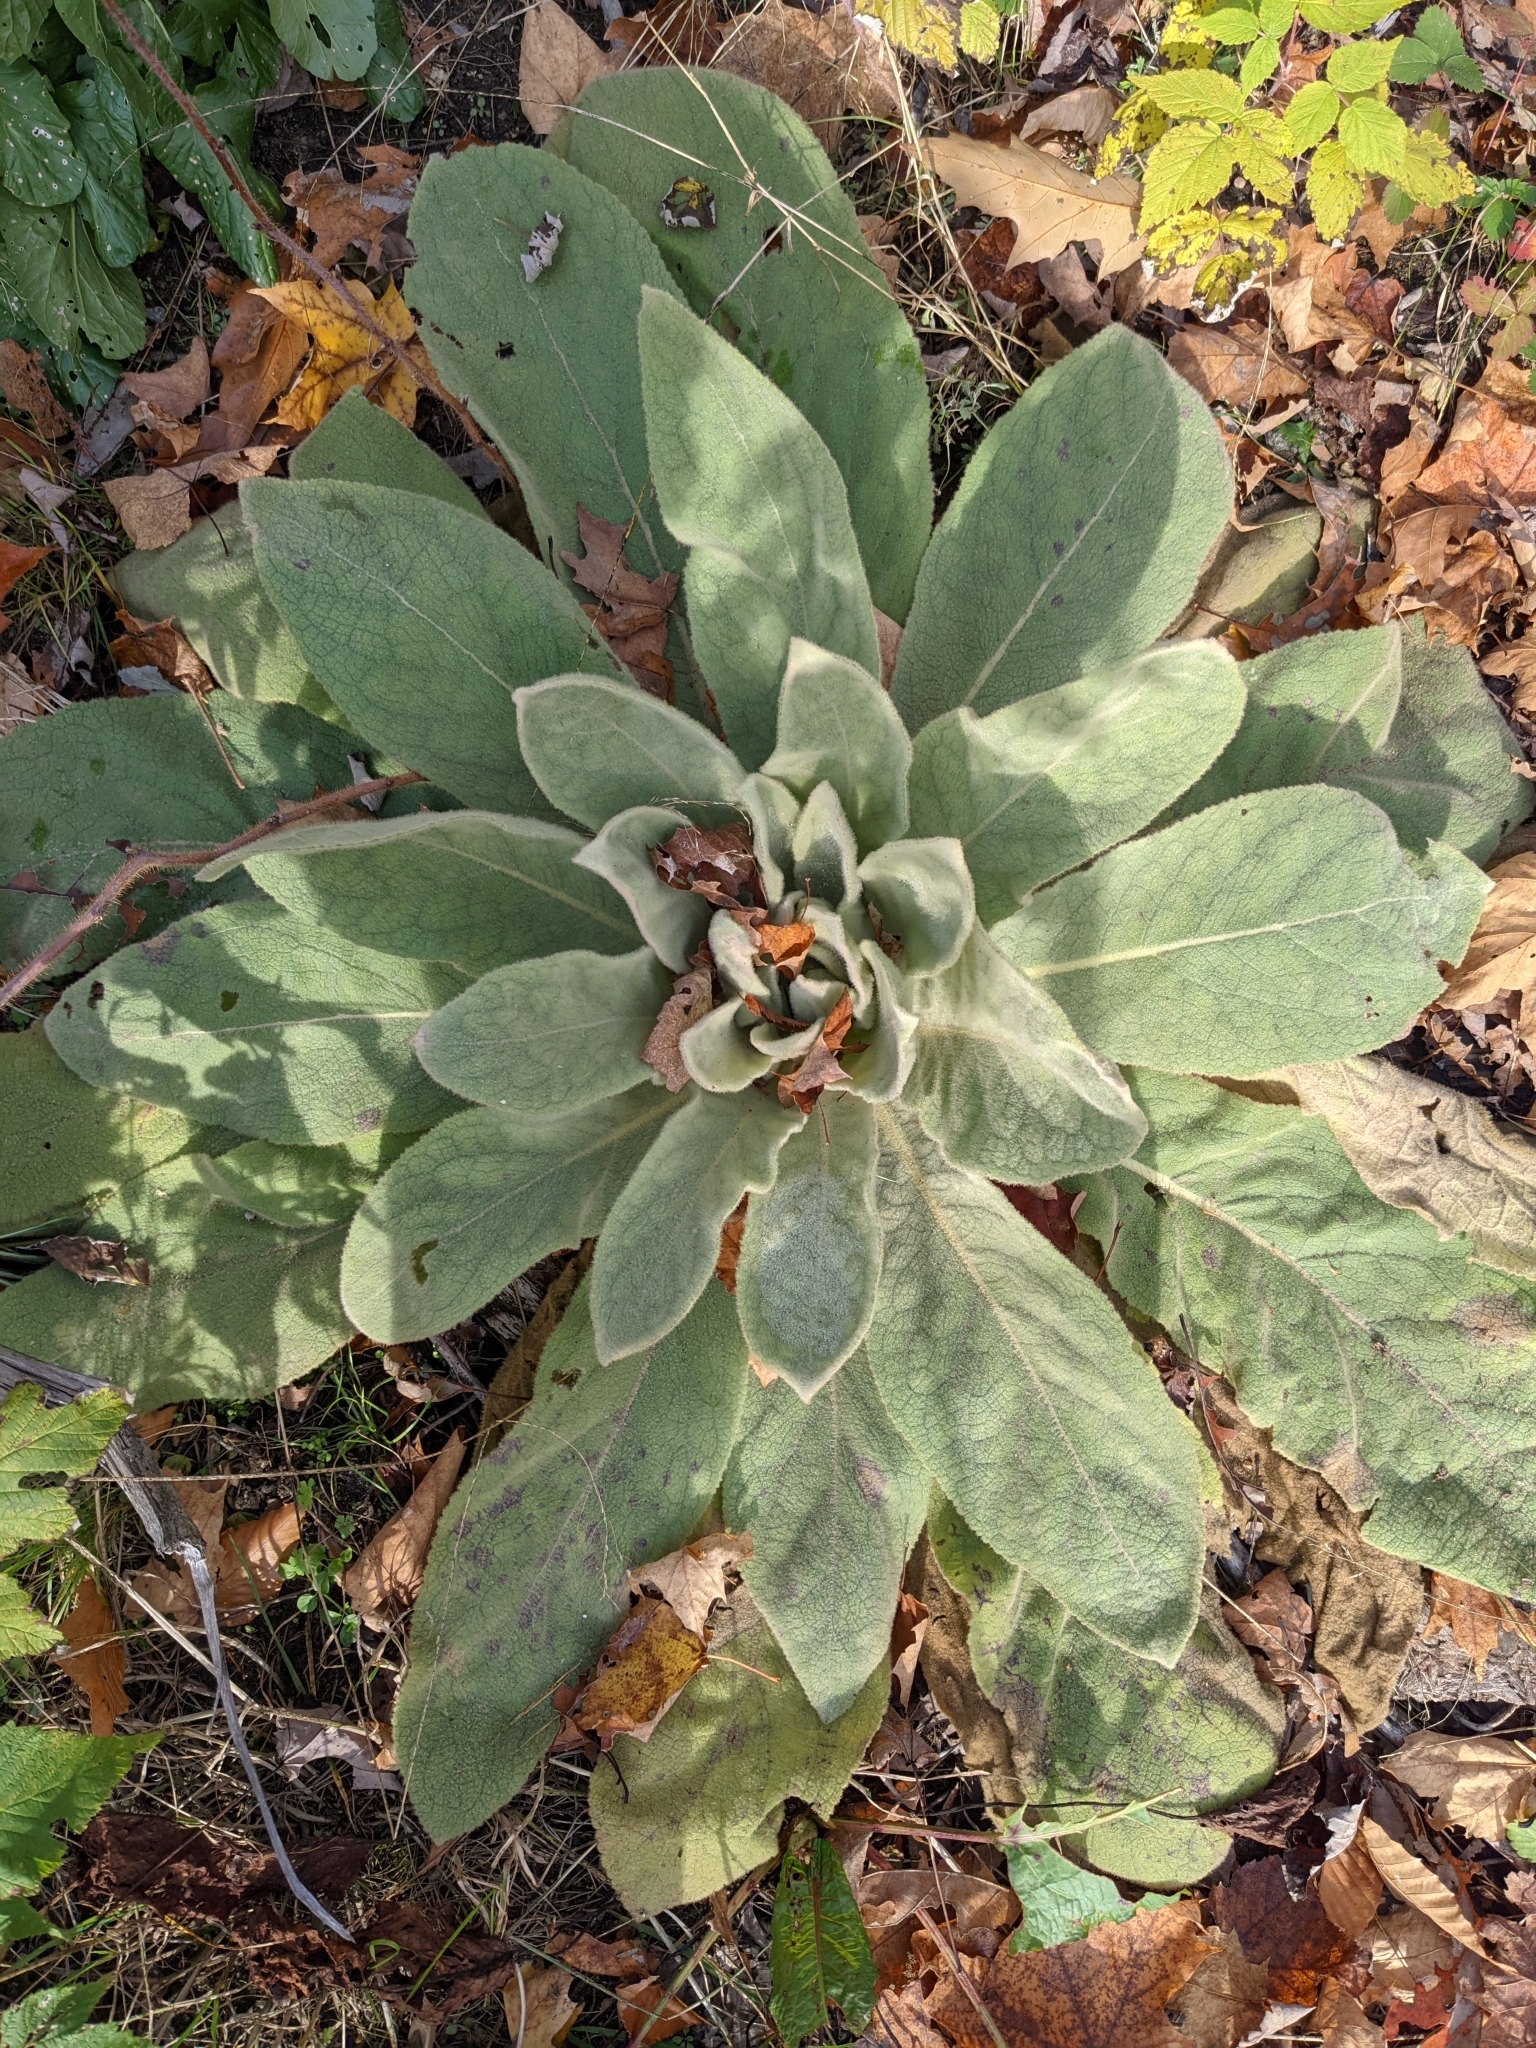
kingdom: Plantae
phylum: Tracheophyta
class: Magnoliopsida
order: Lamiales
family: Scrophulariaceae
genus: Verbascum
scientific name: Verbascum thapsus
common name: Common mullein
